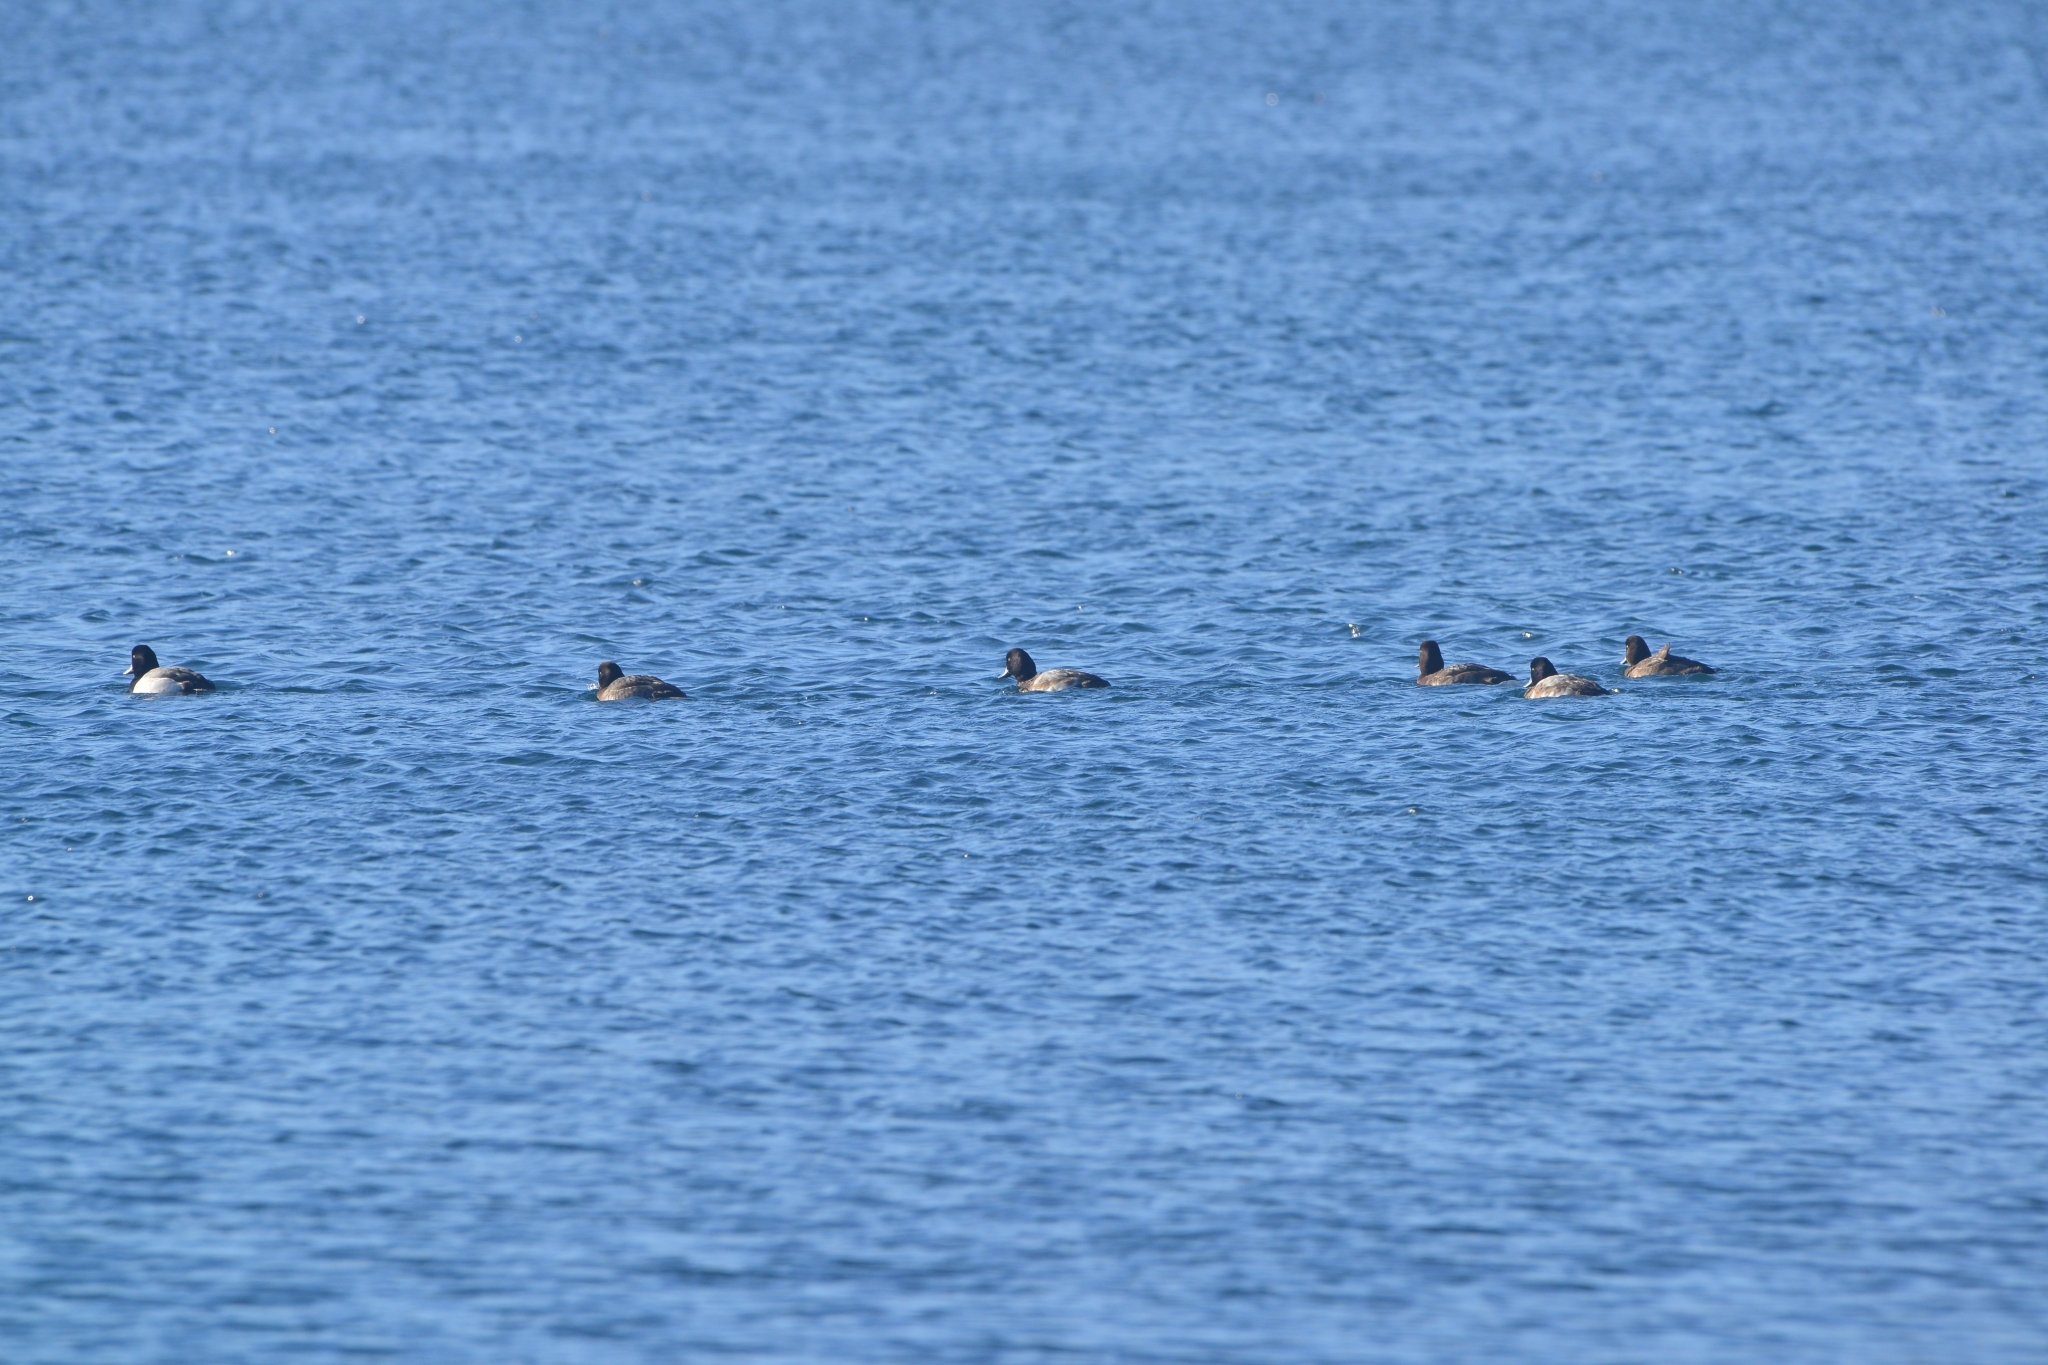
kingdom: Animalia
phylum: Chordata
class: Aves
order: Anseriformes
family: Anatidae
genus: Aythya
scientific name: Aythya marila
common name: Greater scaup
